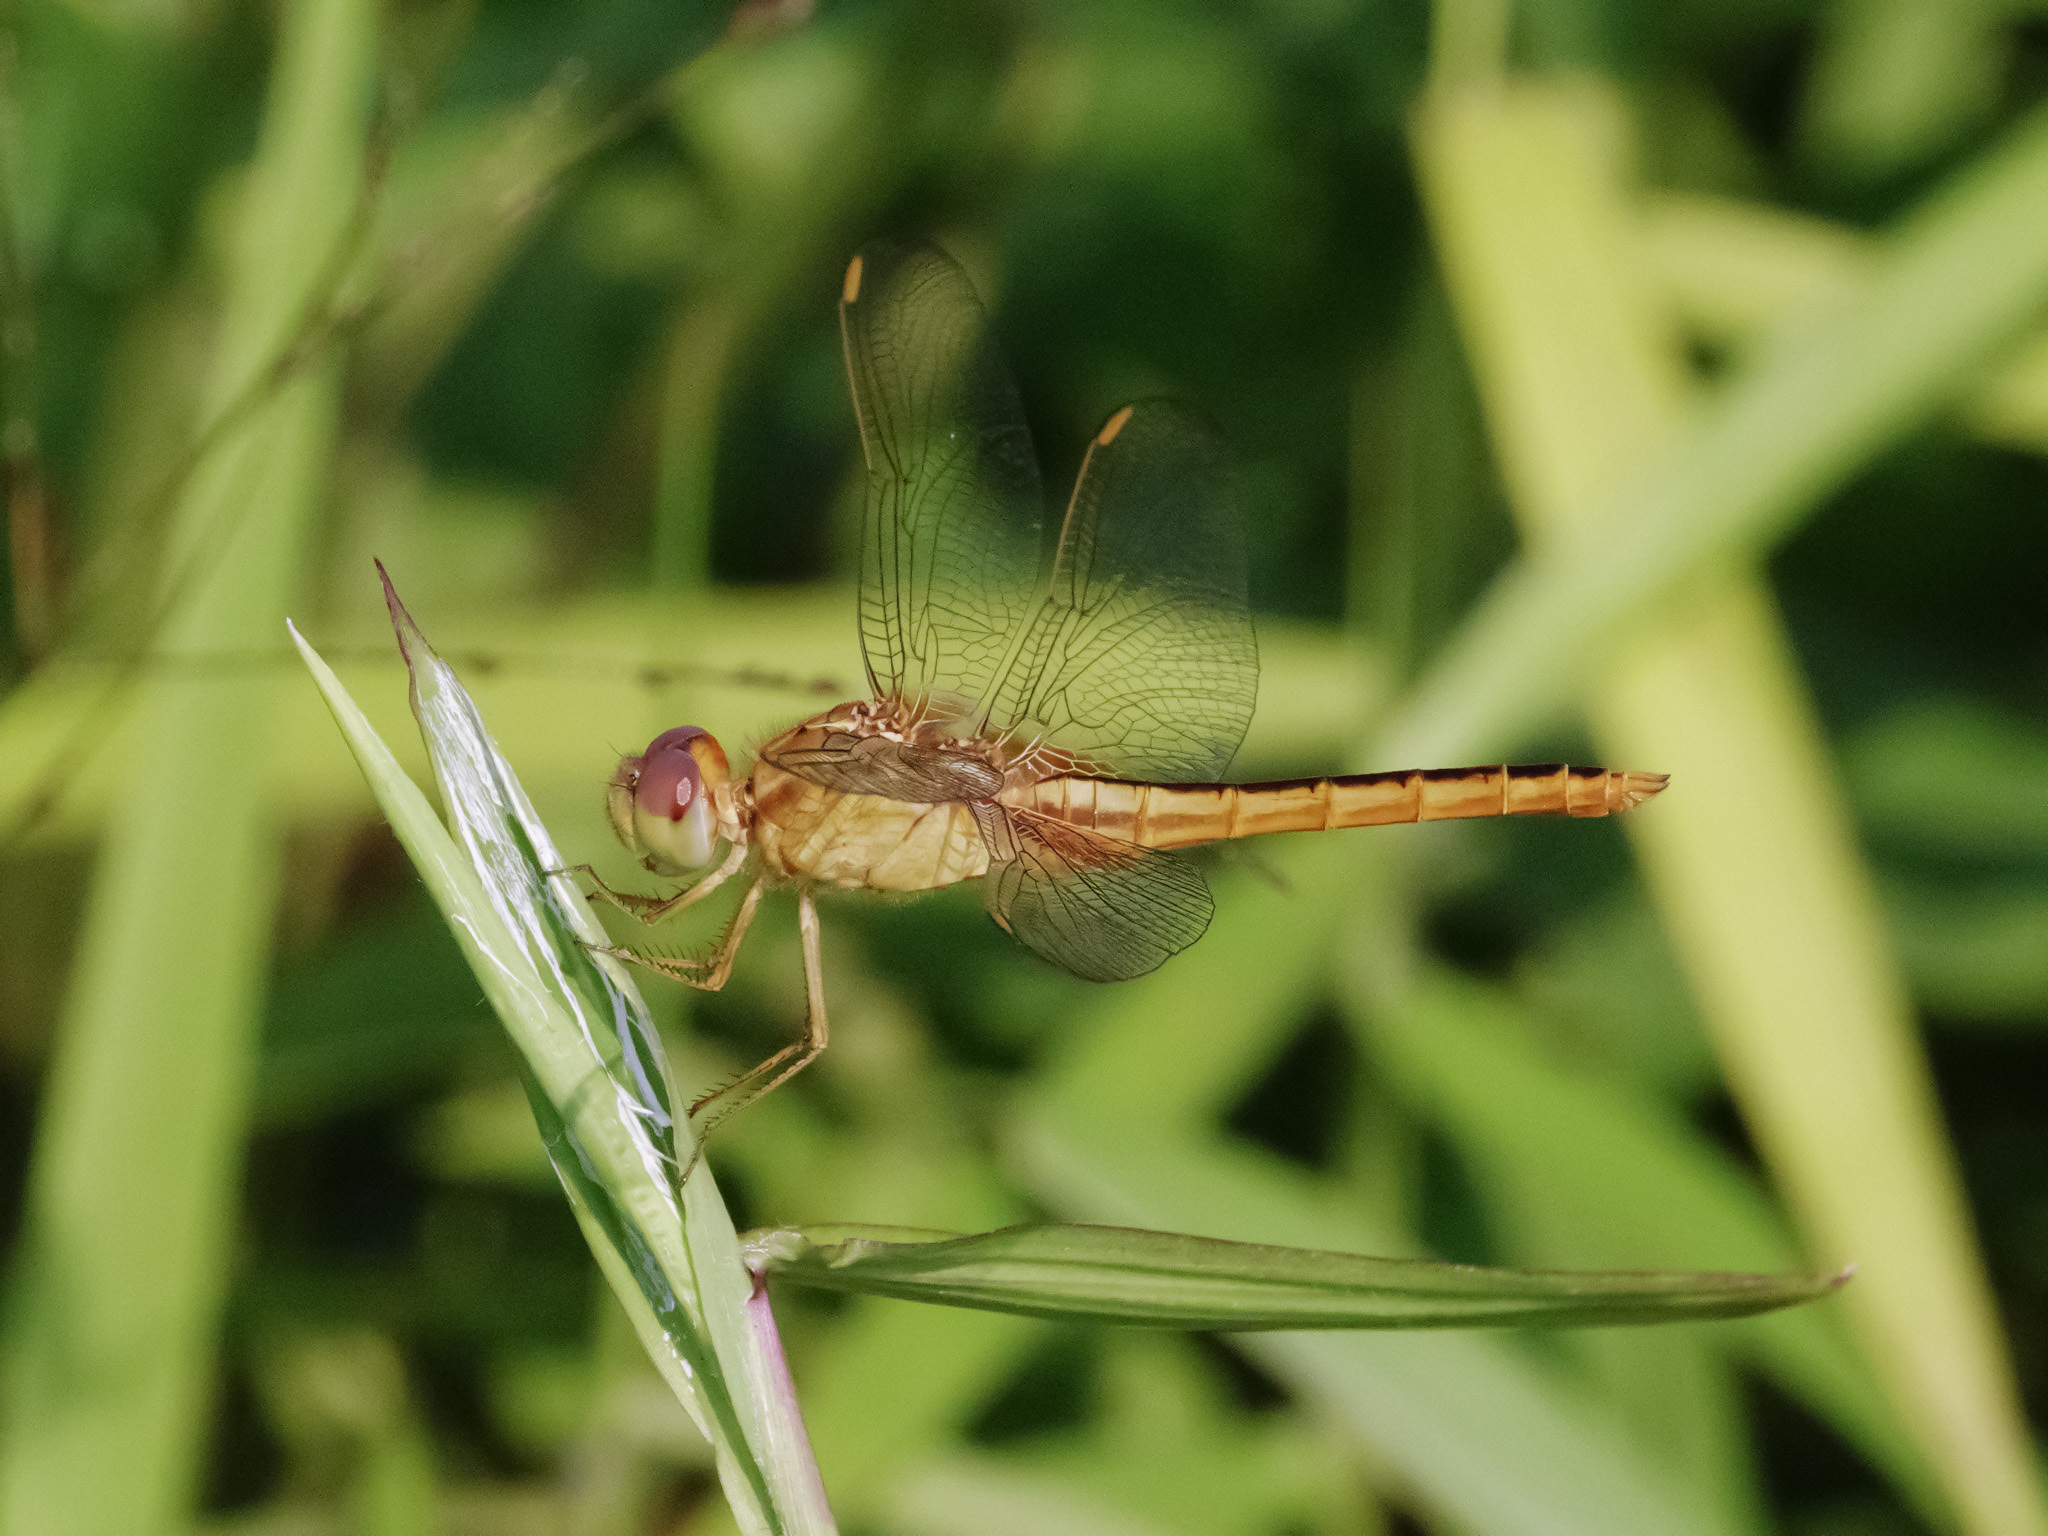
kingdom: Animalia
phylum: Arthropoda
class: Insecta
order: Odonata
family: Libellulidae
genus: Crocothemis
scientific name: Crocothemis servilia
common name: Scarlet skimmer
